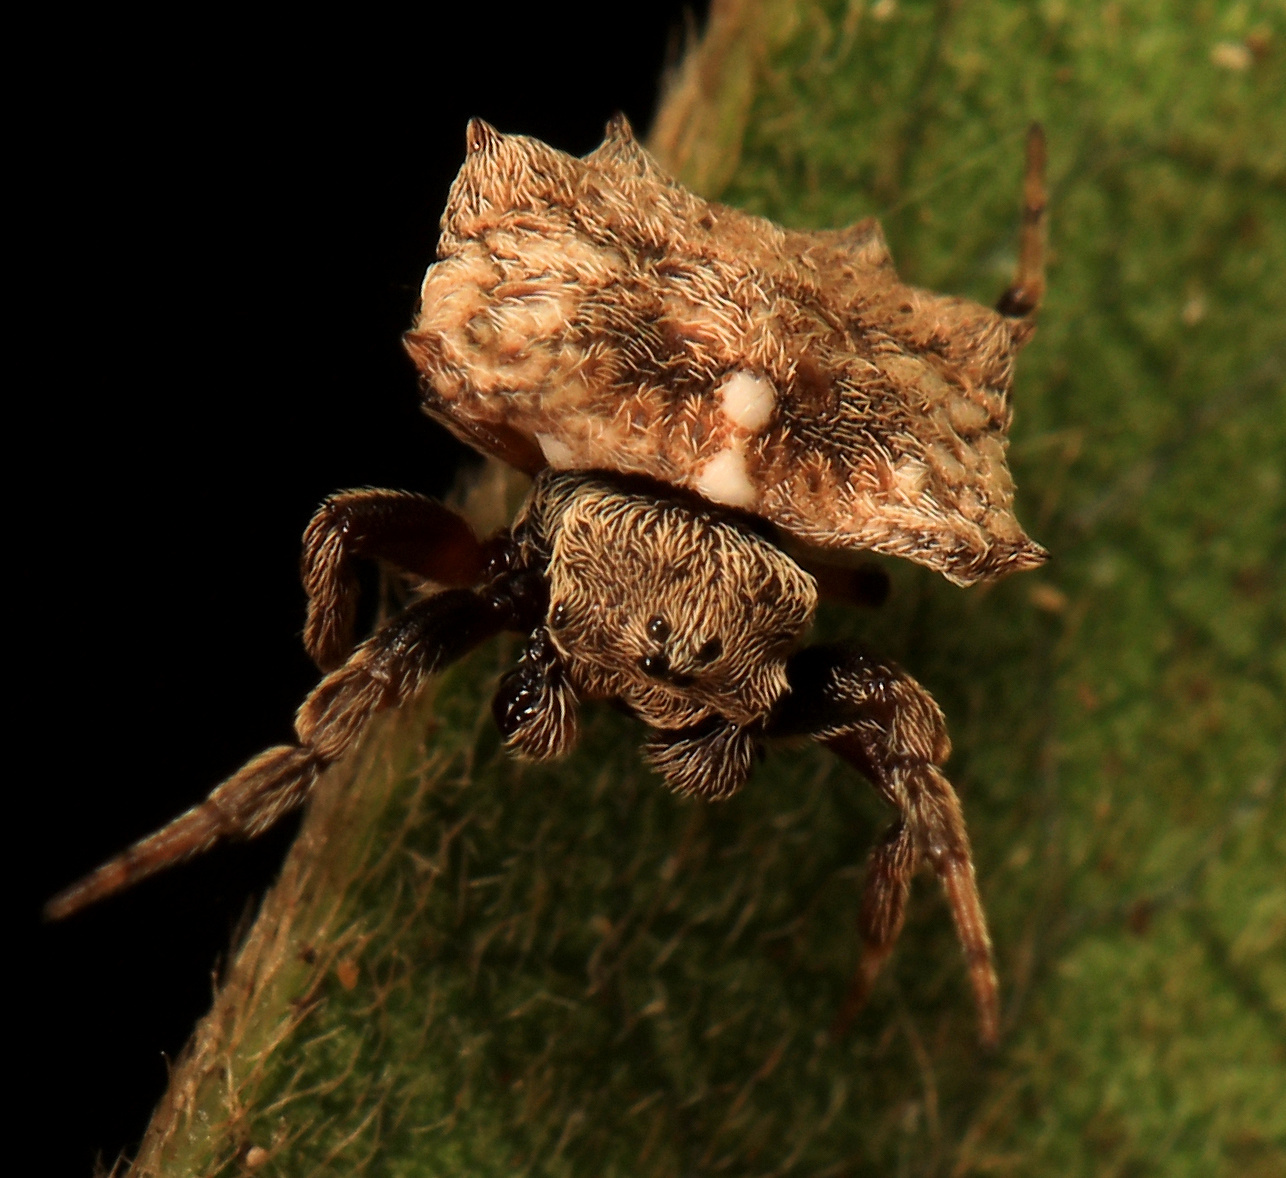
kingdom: Animalia
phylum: Arthropoda
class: Arachnida
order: Araneae
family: Araneidae
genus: Isoxya
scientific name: Isoxya testudinaria
